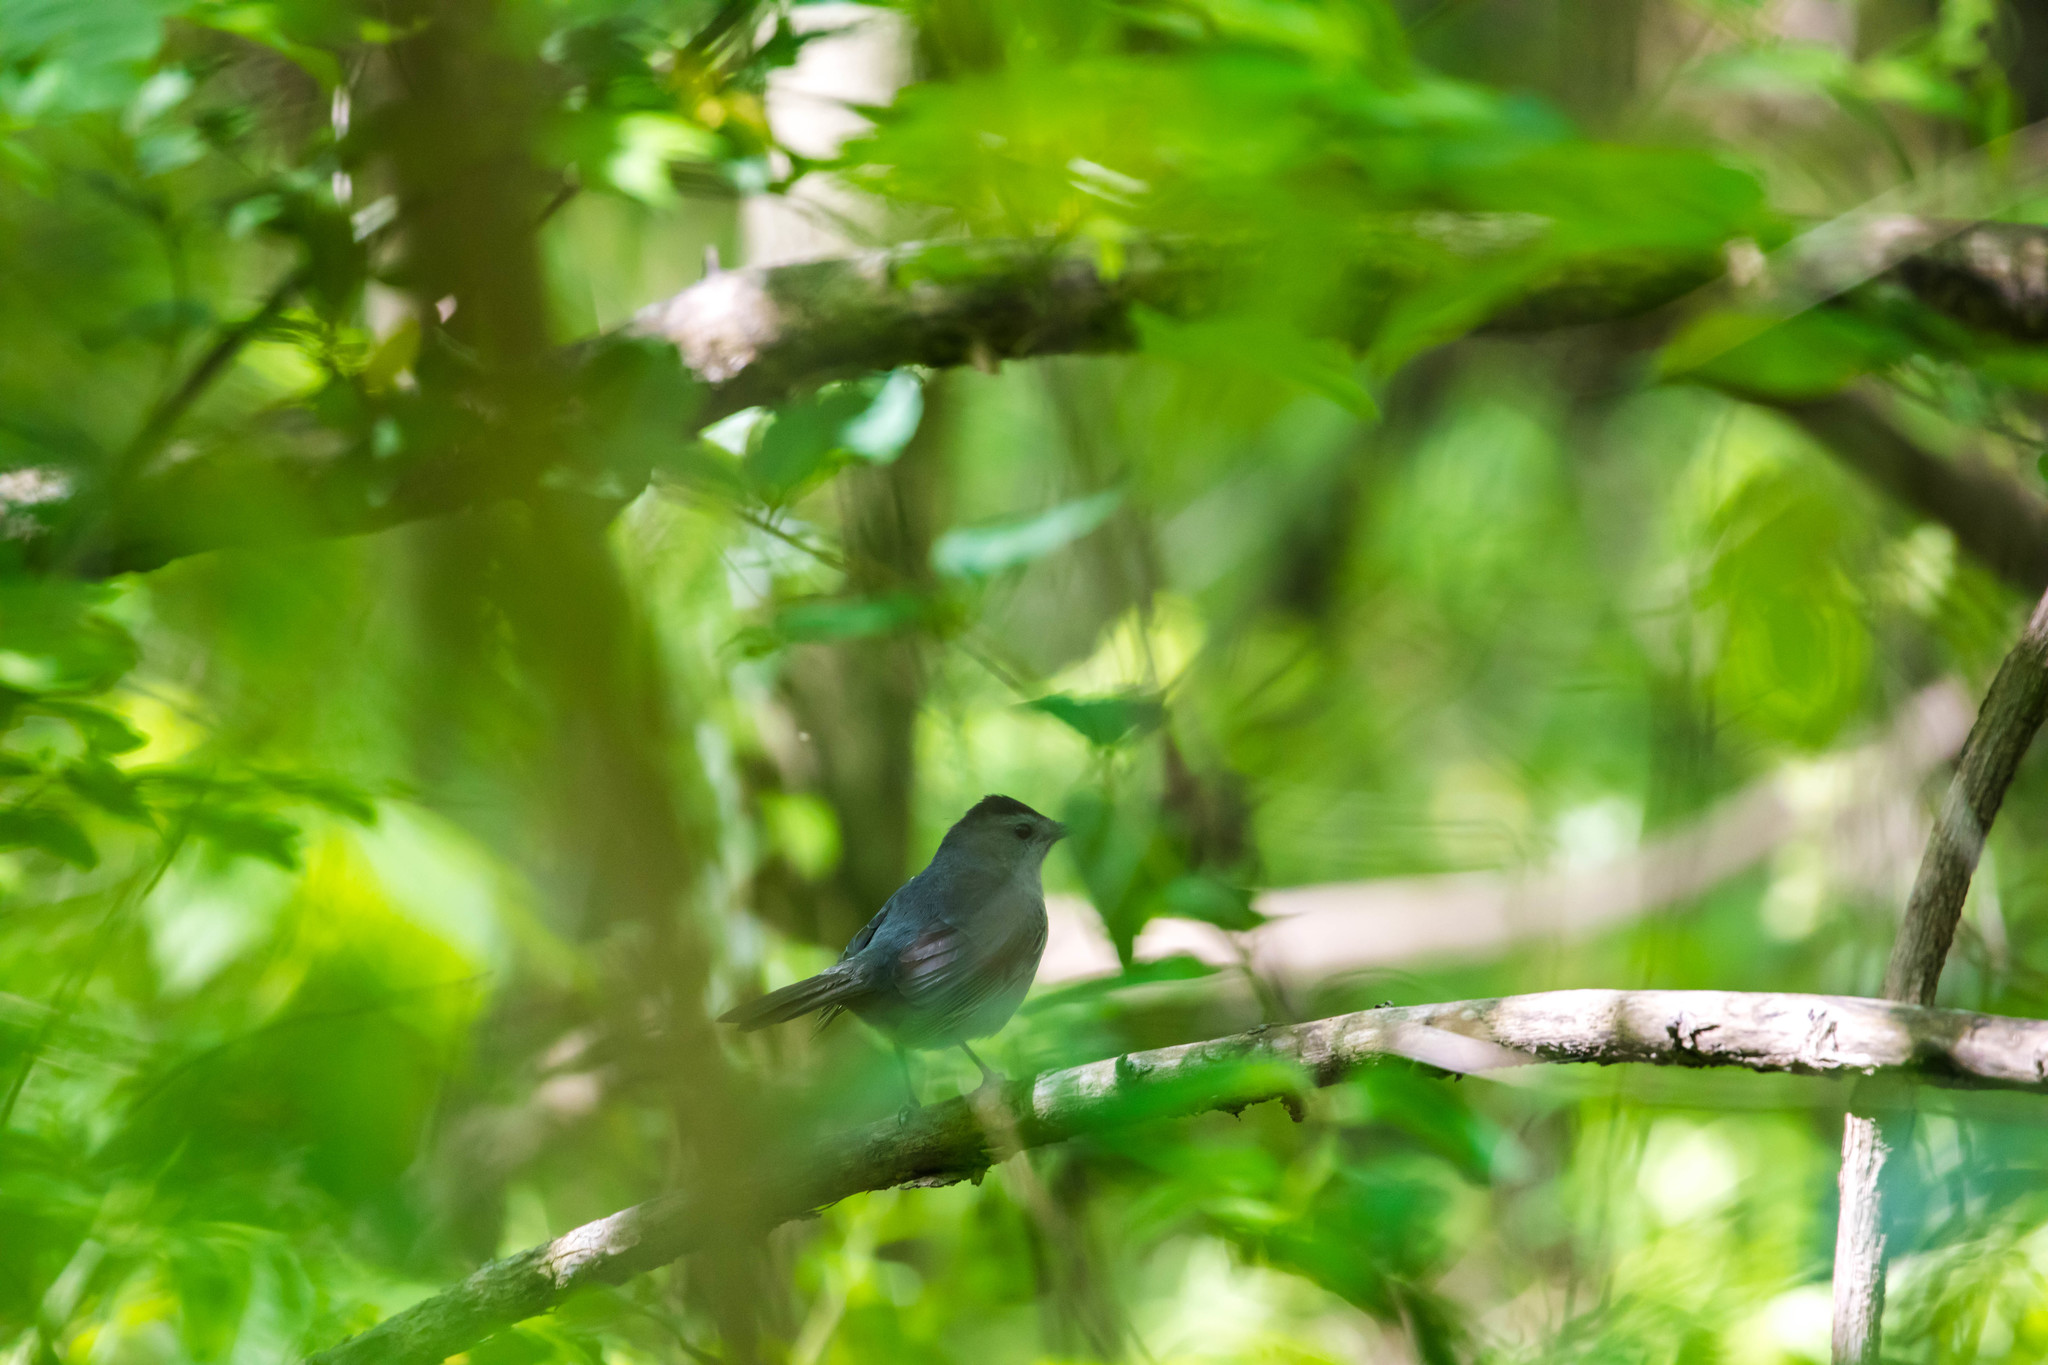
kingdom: Animalia
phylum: Chordata
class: Aves
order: Passeriformes
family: Mimidae
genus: Dumetella
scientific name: Dumetella carolinensis
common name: Gray catbird
